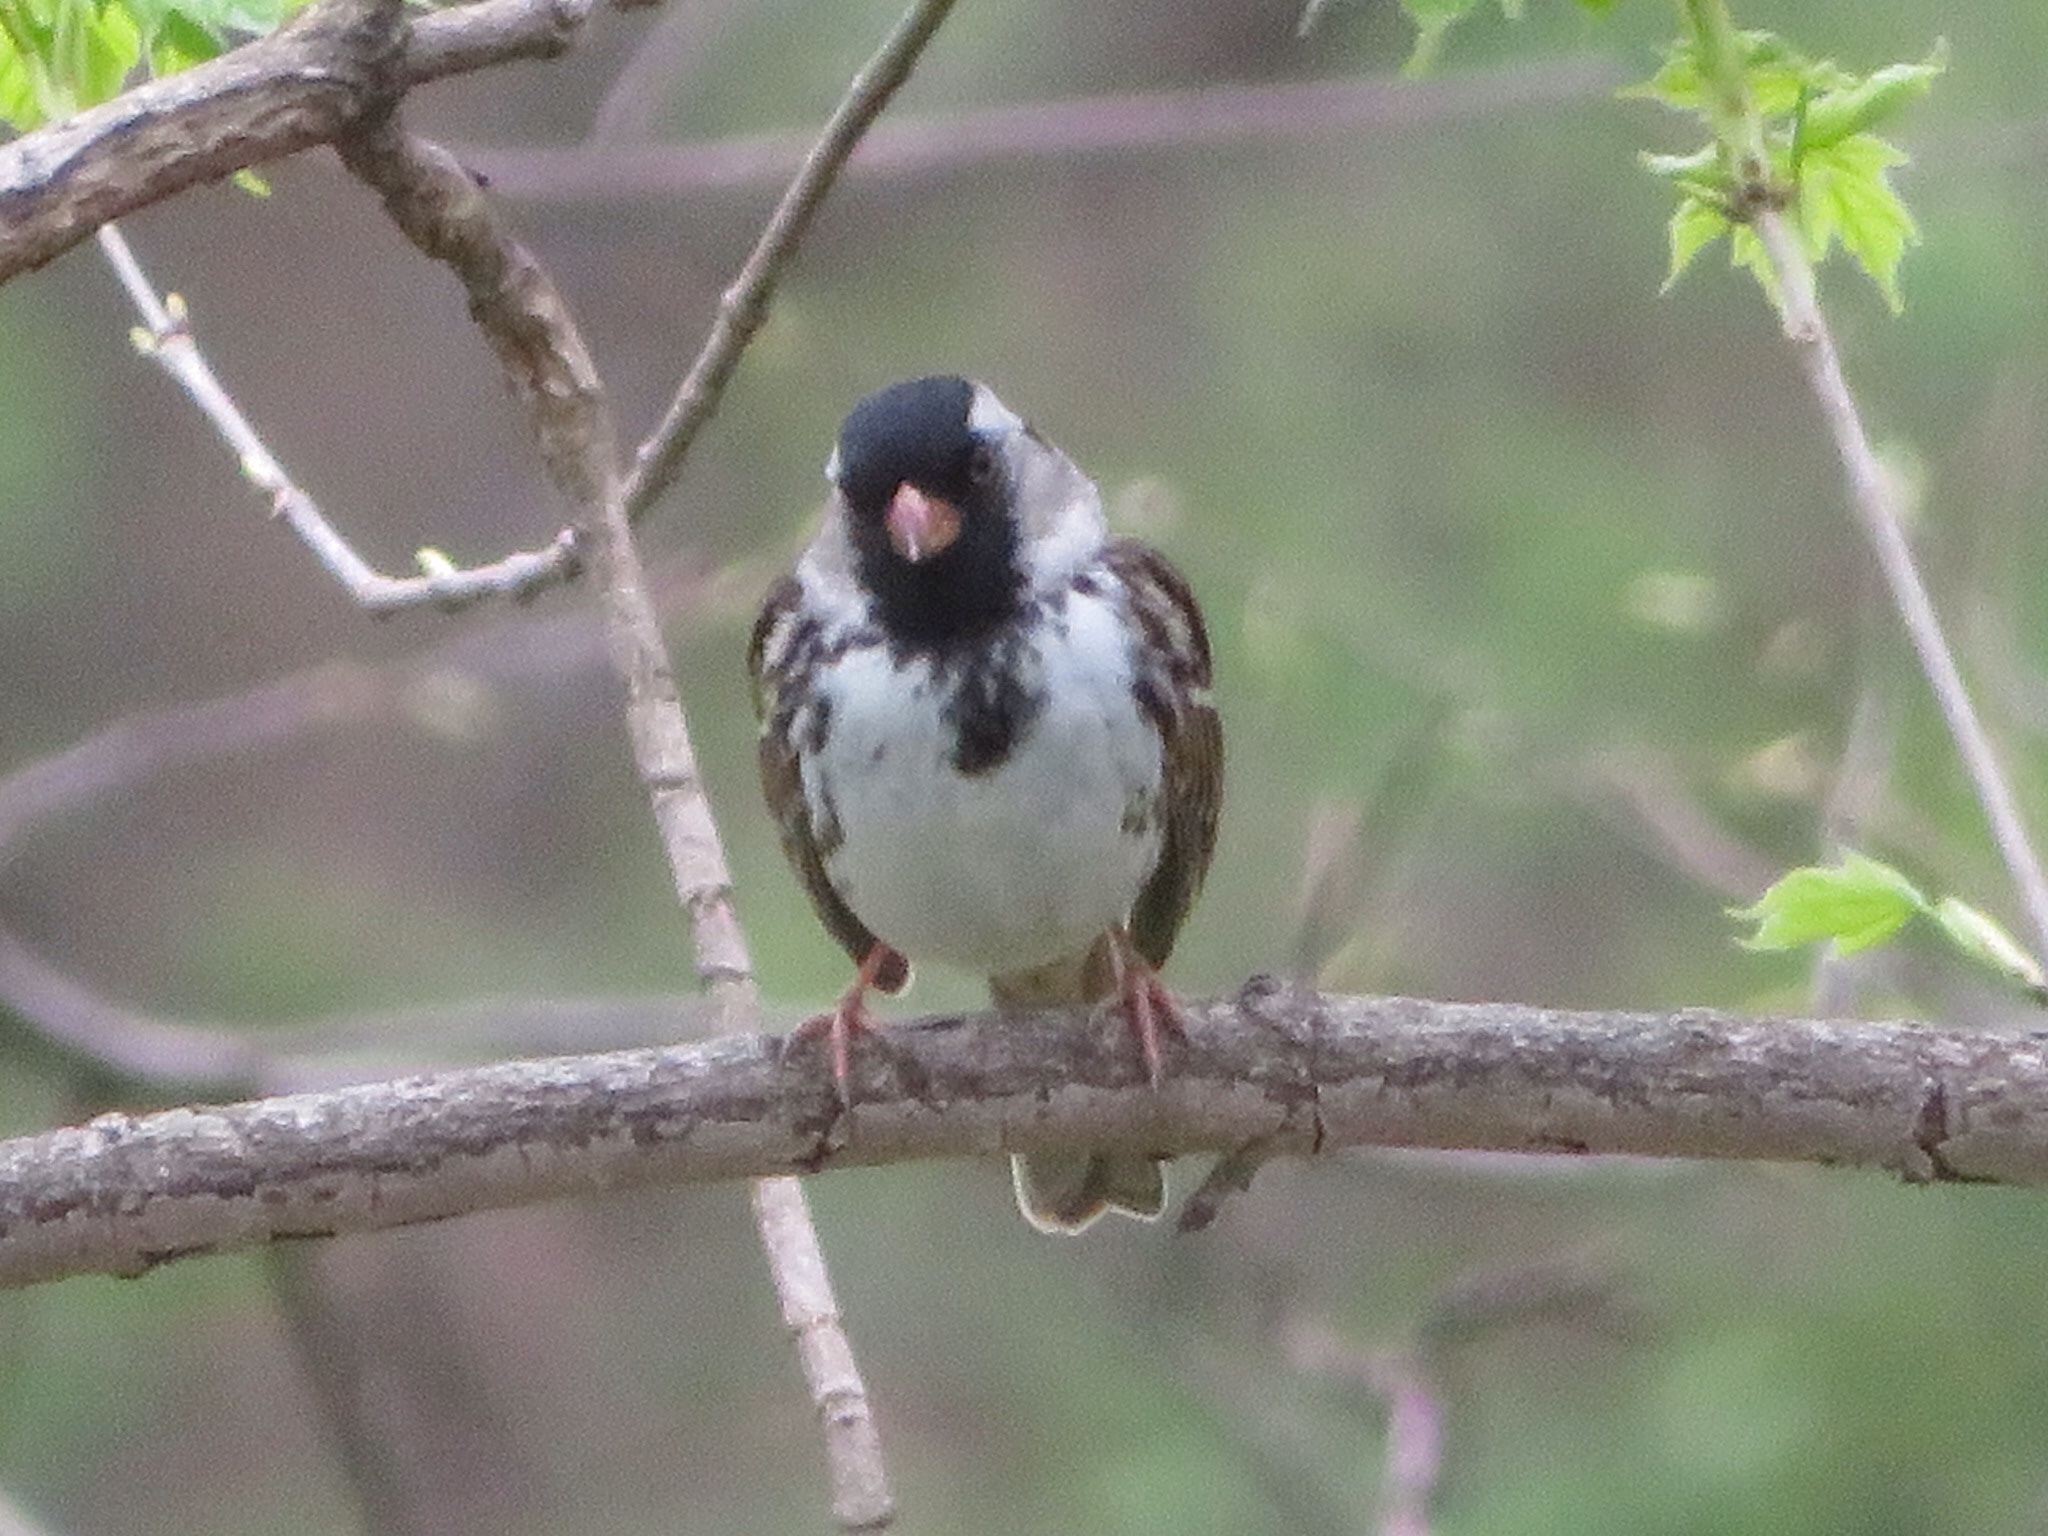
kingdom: Animalia
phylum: Chordata
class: Aves
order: Passeriformes
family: Passerellidae
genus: Zonotrichia
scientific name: Zonotrichia querula
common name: Harris's sparrow
